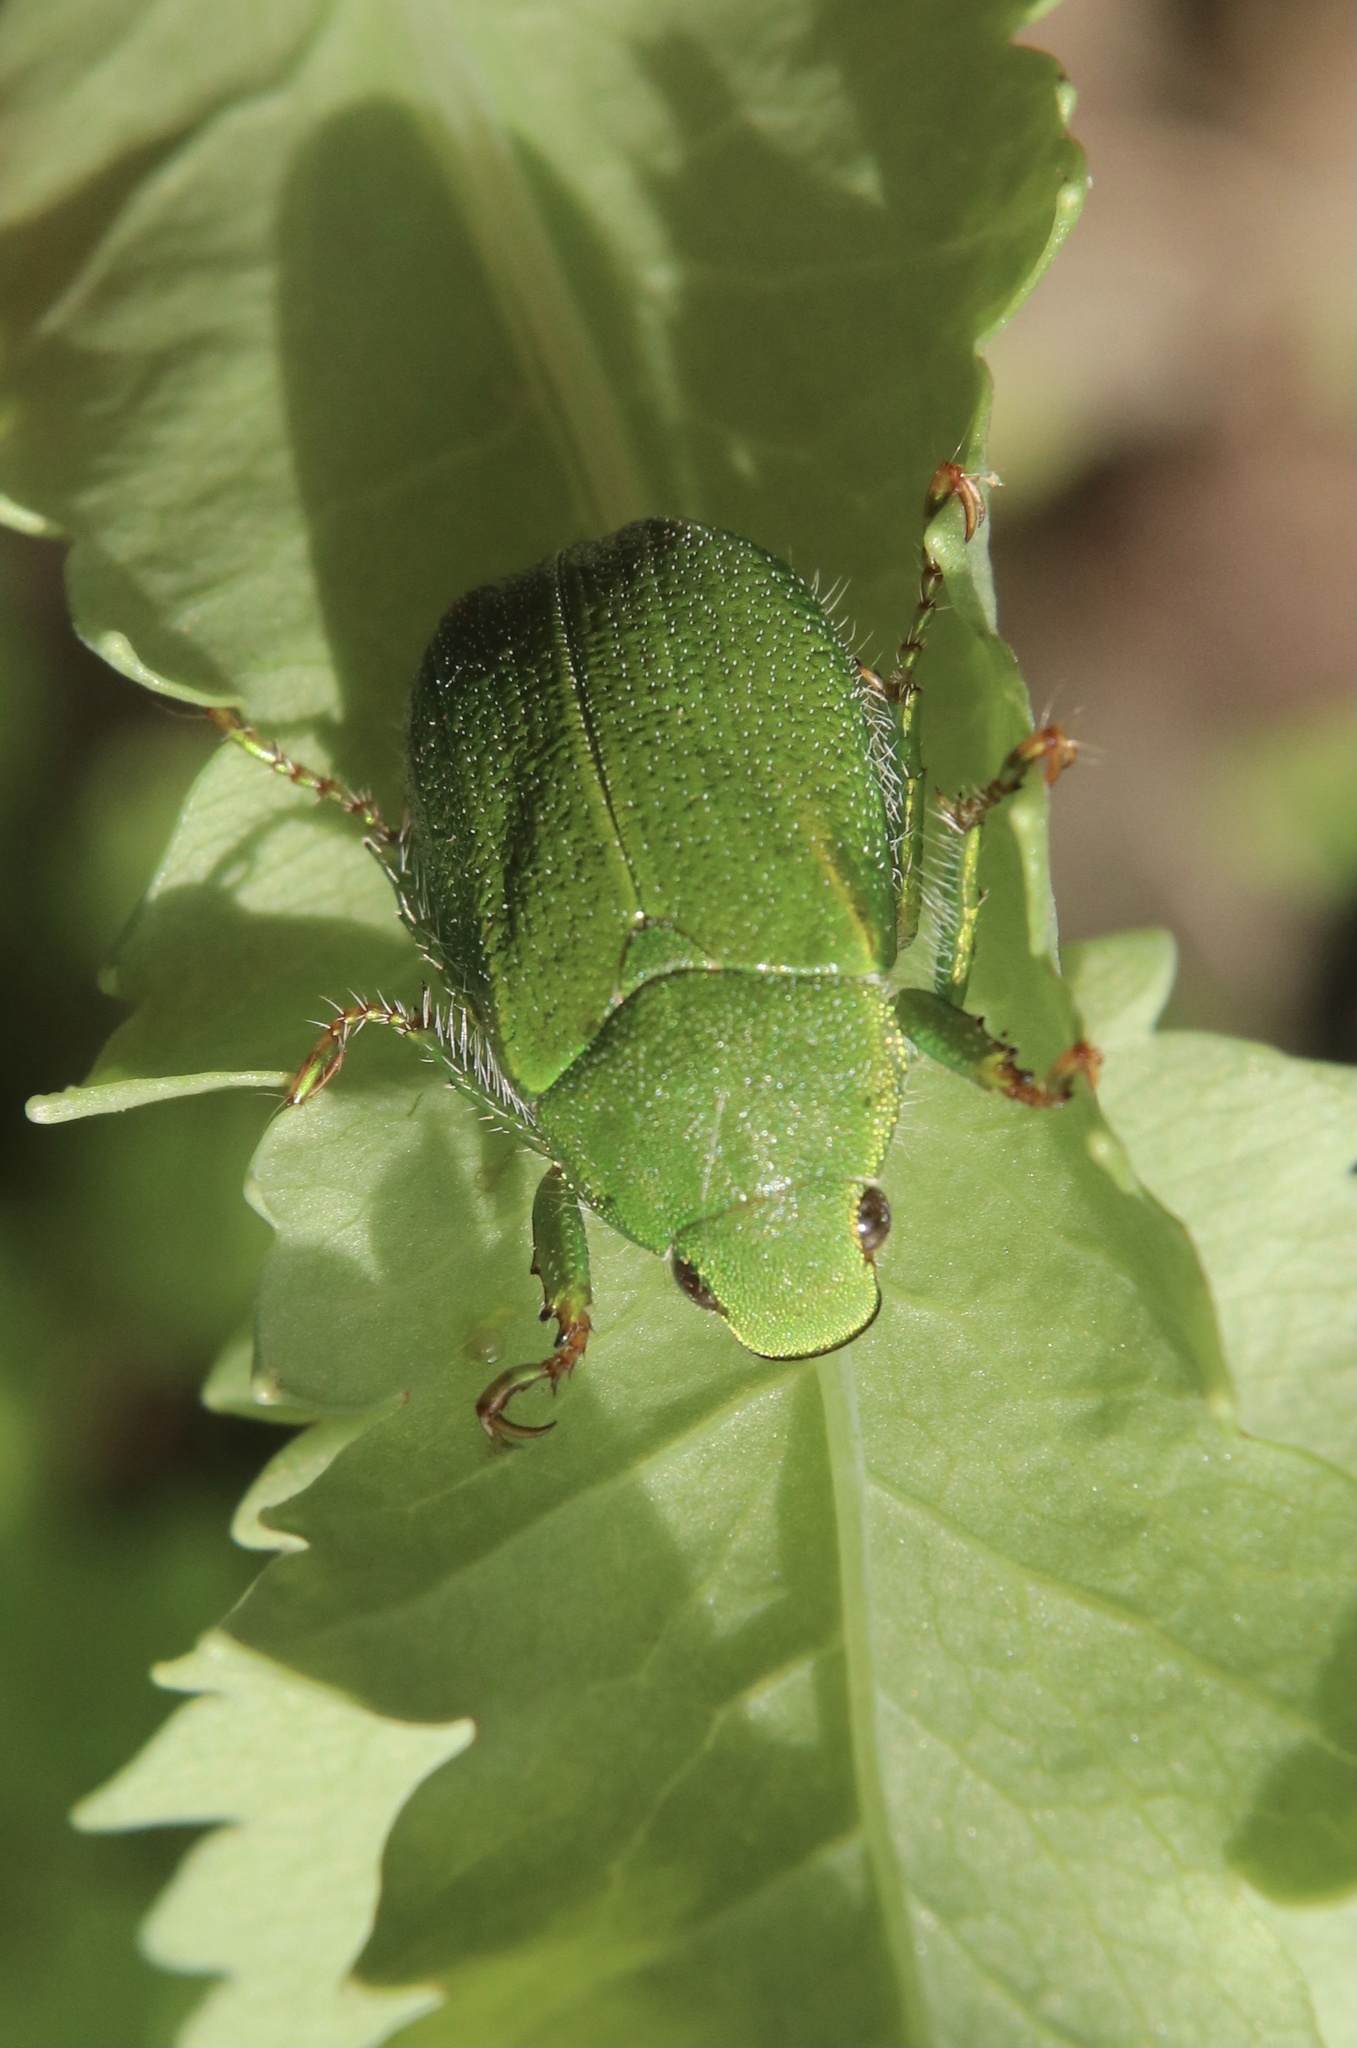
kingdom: Animalia
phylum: Arthropoda
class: Insecta
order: Coleoptera
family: Scarabaeidae
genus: Hylamorpha
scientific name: Hylamorpha elegans
